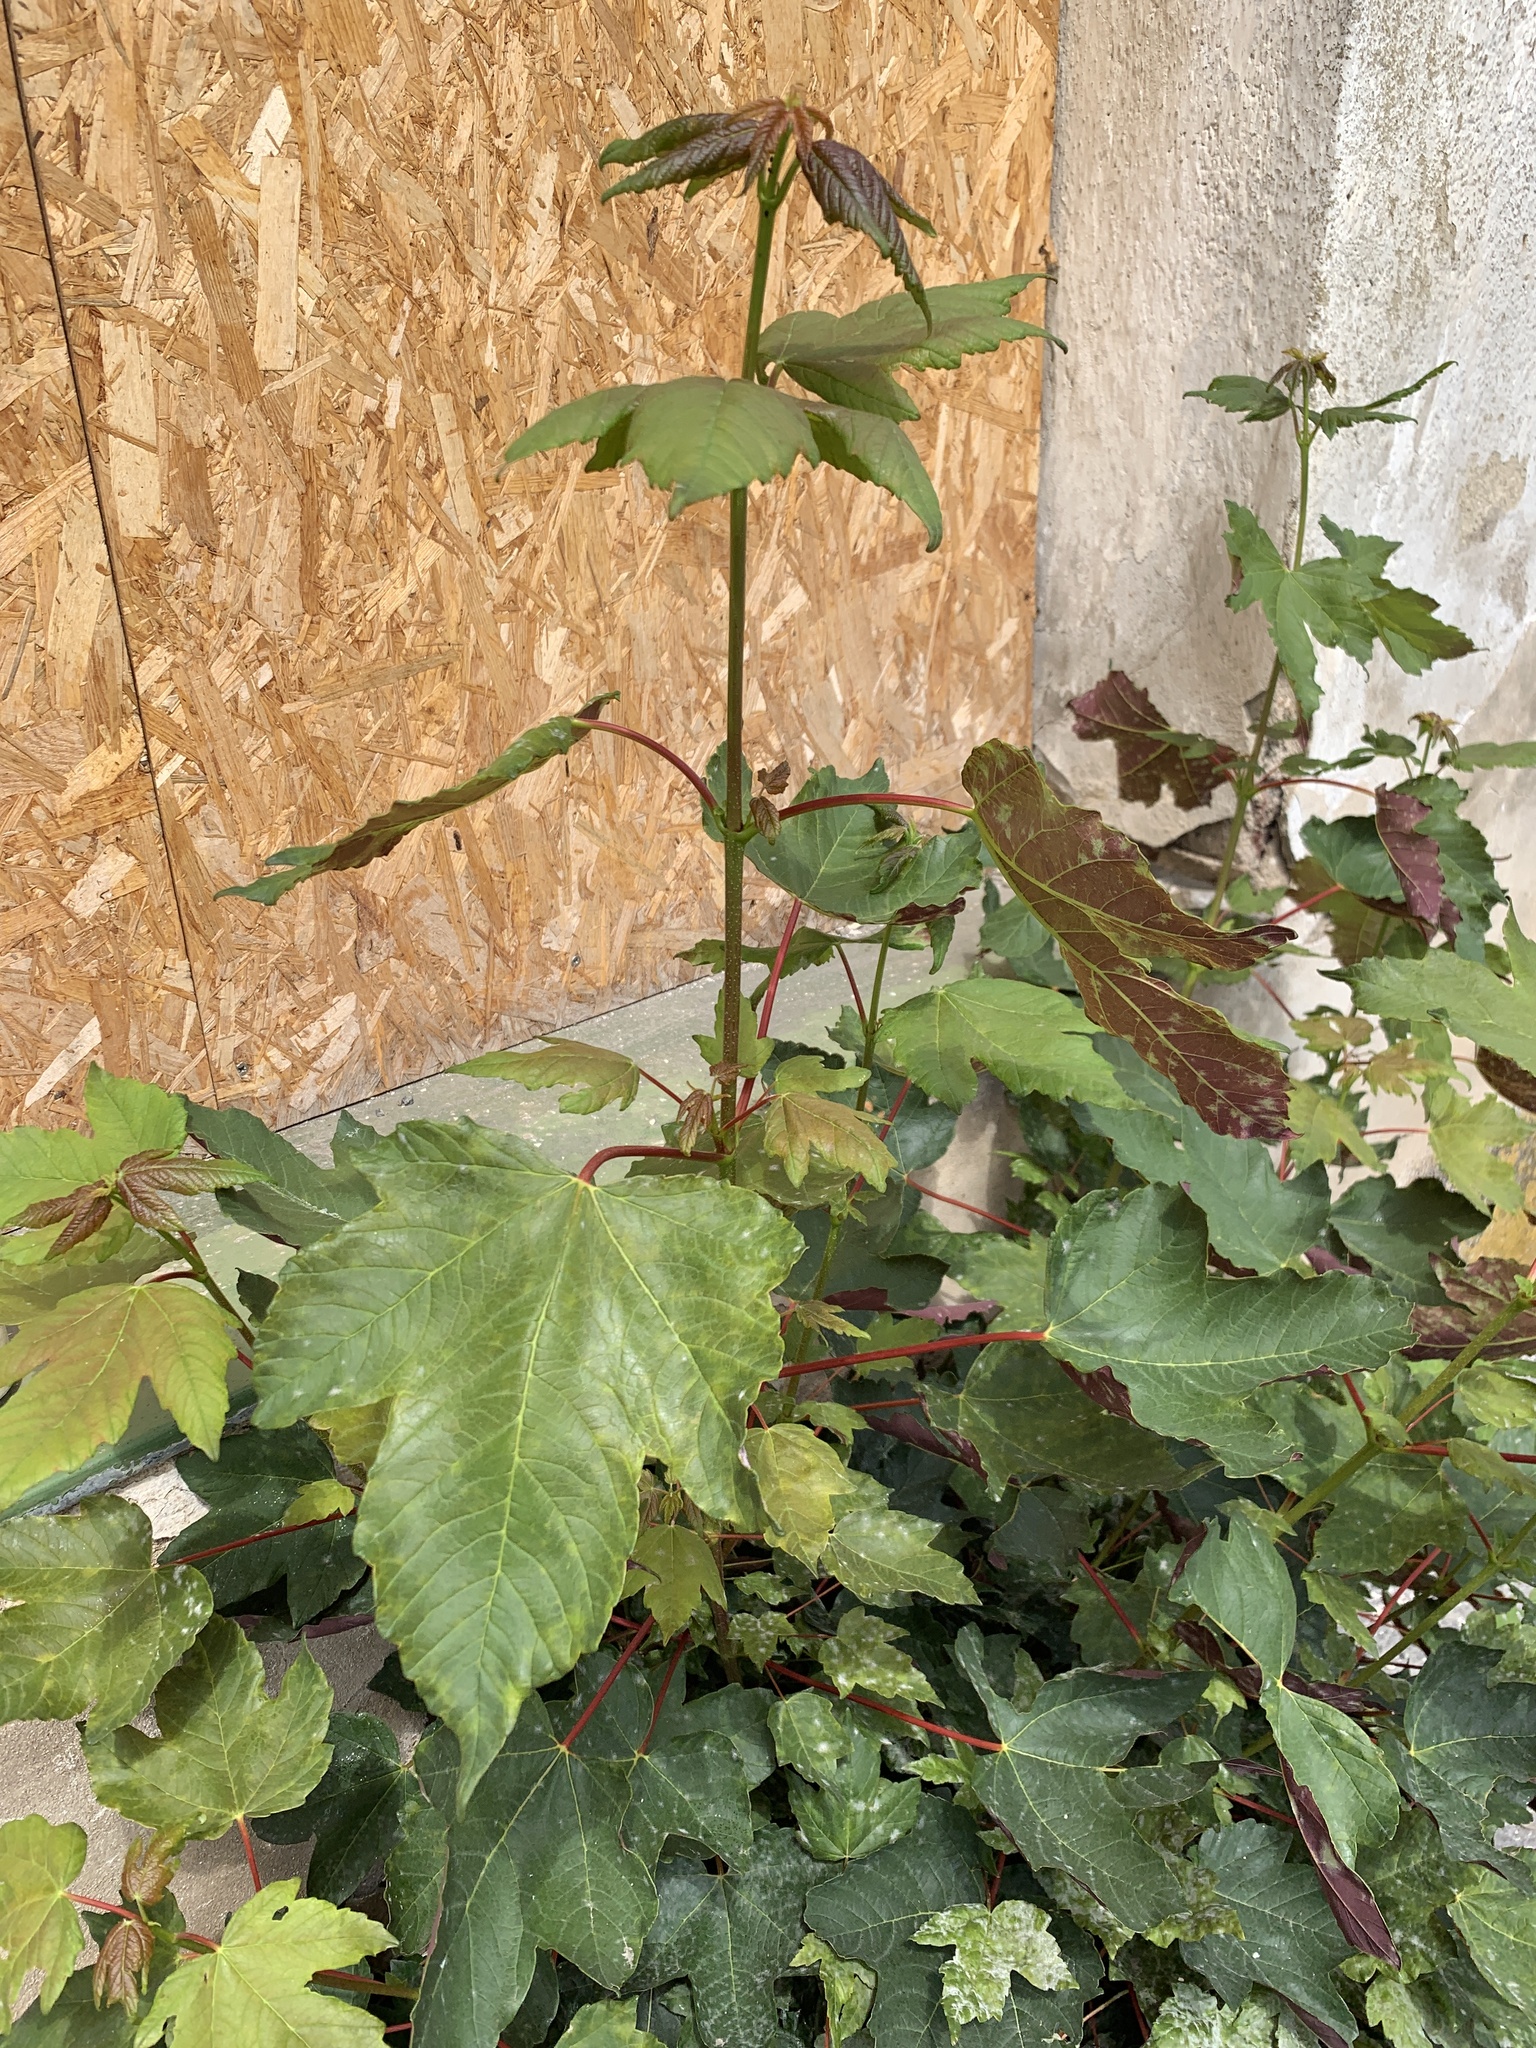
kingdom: Plantae
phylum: Tracheophyta
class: Magnoliopsida
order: Sapindales
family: Sapindaceae
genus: Acer
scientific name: Acer pseudoplatanus
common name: Sycamore
